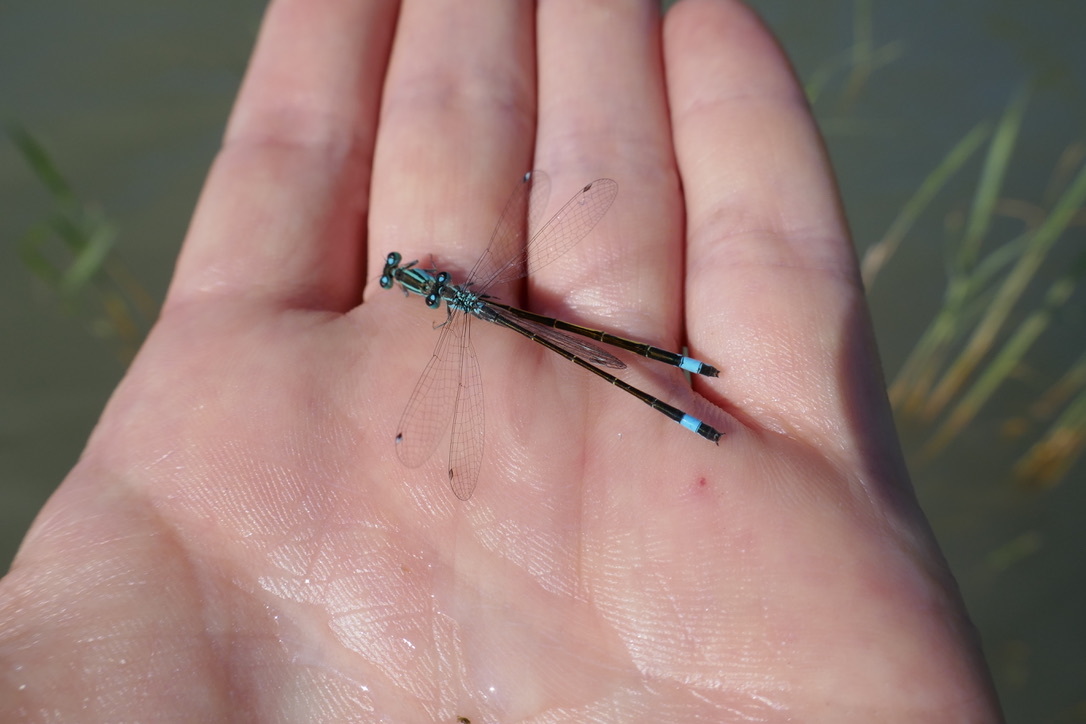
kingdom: Animalia
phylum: Arthropoda
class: Insecta
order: Odonata
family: Coenagrionidae
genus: Ischnura
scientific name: Ischnura elegans
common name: Blue-tailed damselfly
